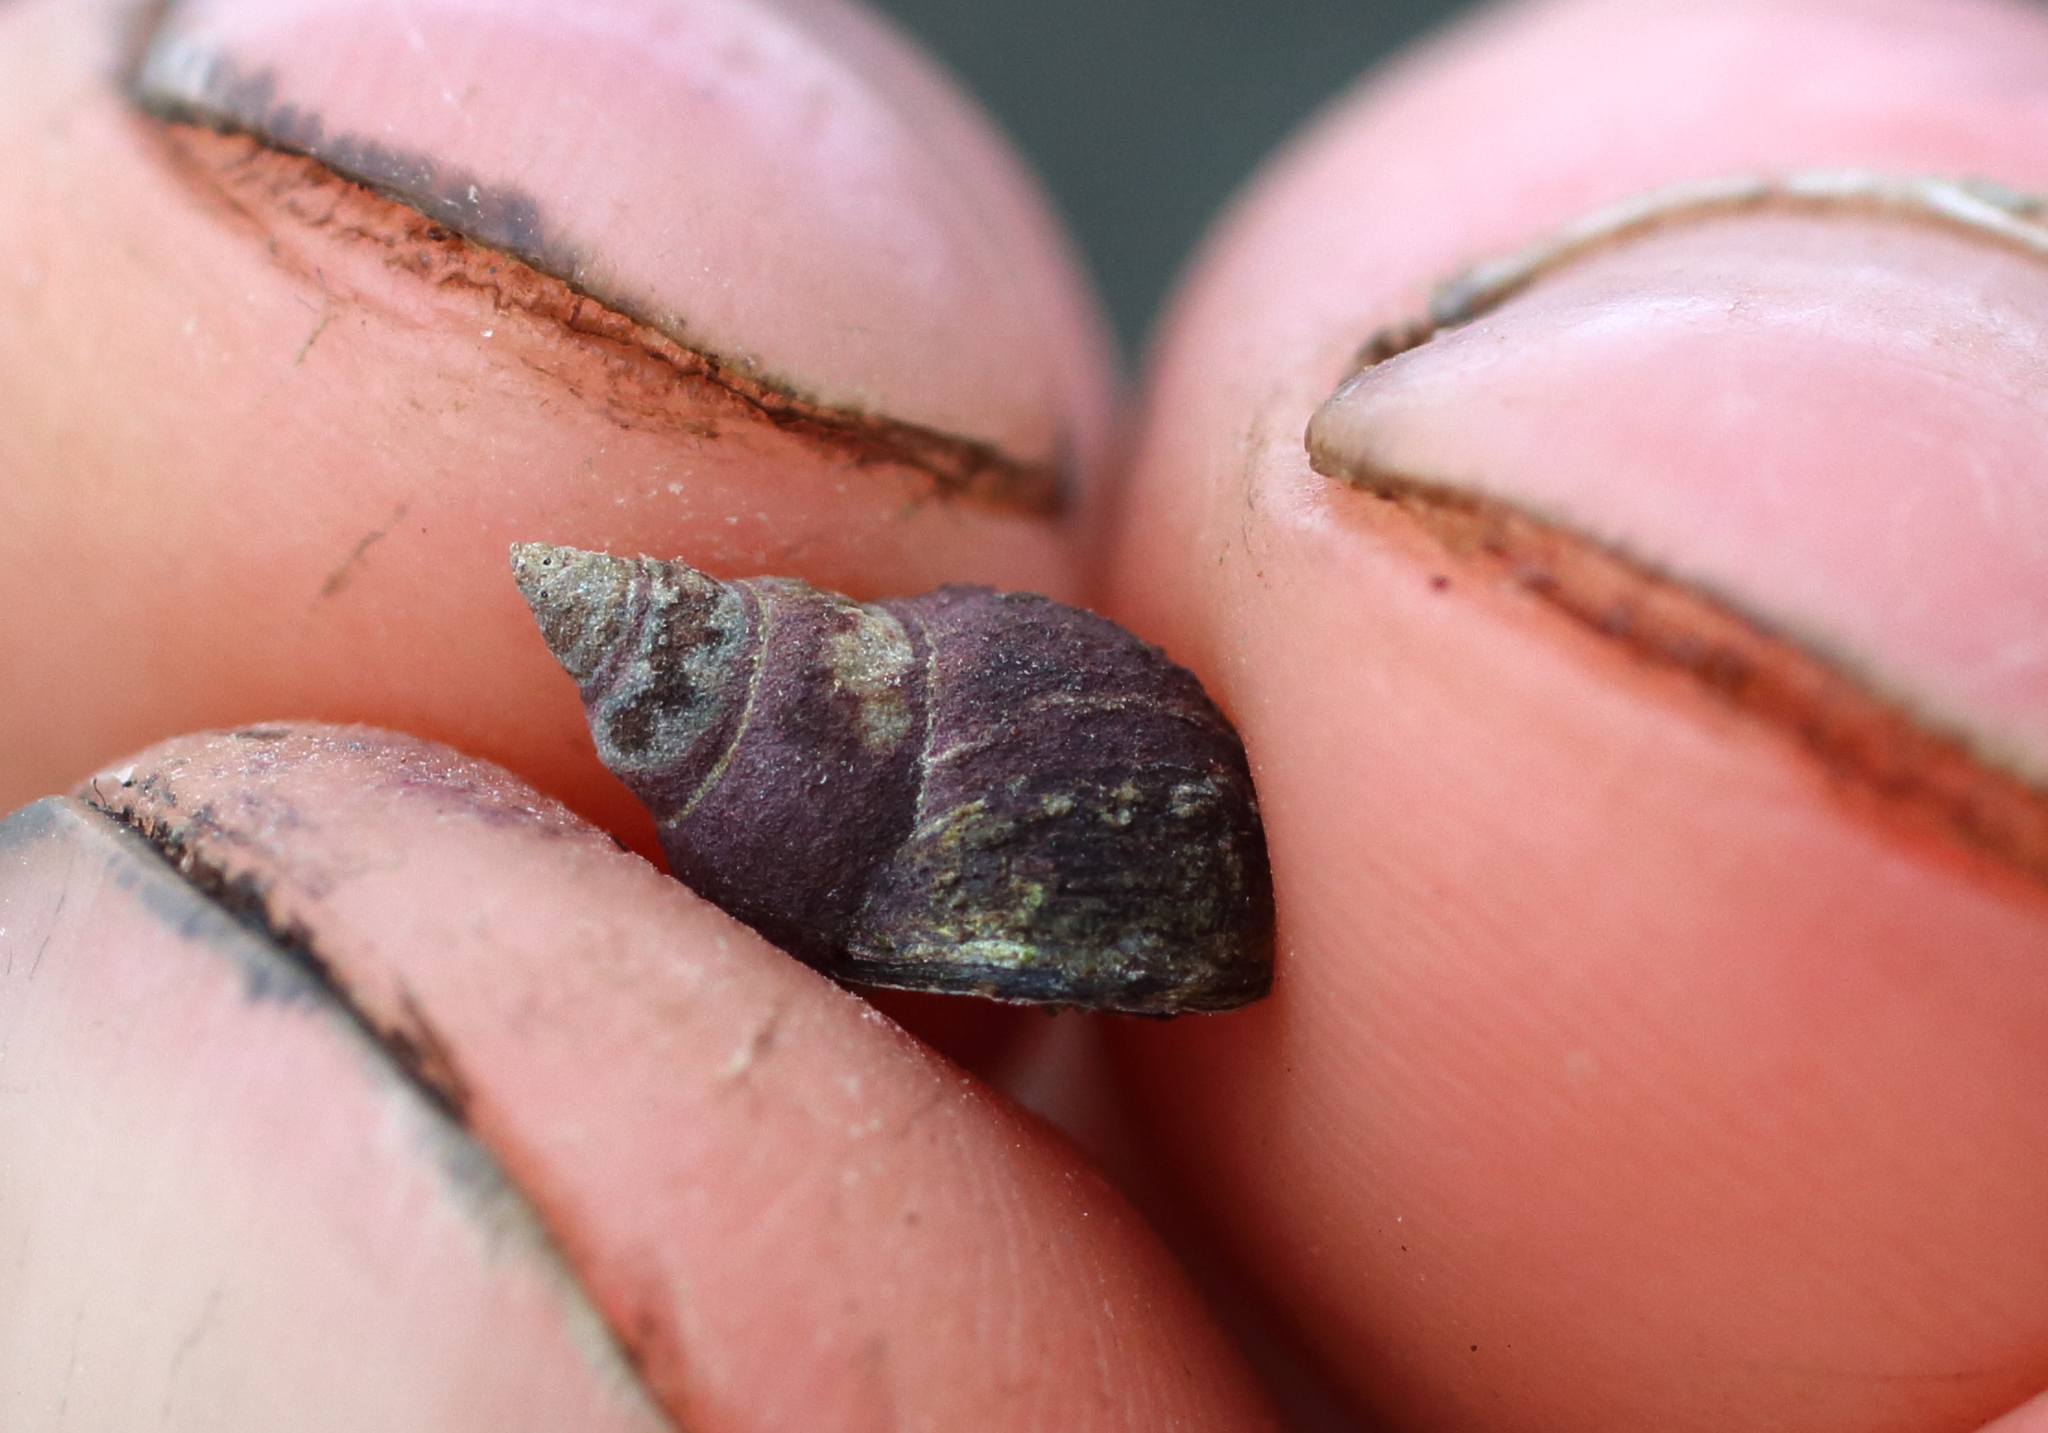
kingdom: Animalia
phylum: Mollusca
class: Gastropoda
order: Littorinimorpha
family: Littorinidae
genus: Littorina
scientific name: Littorina scutulata
